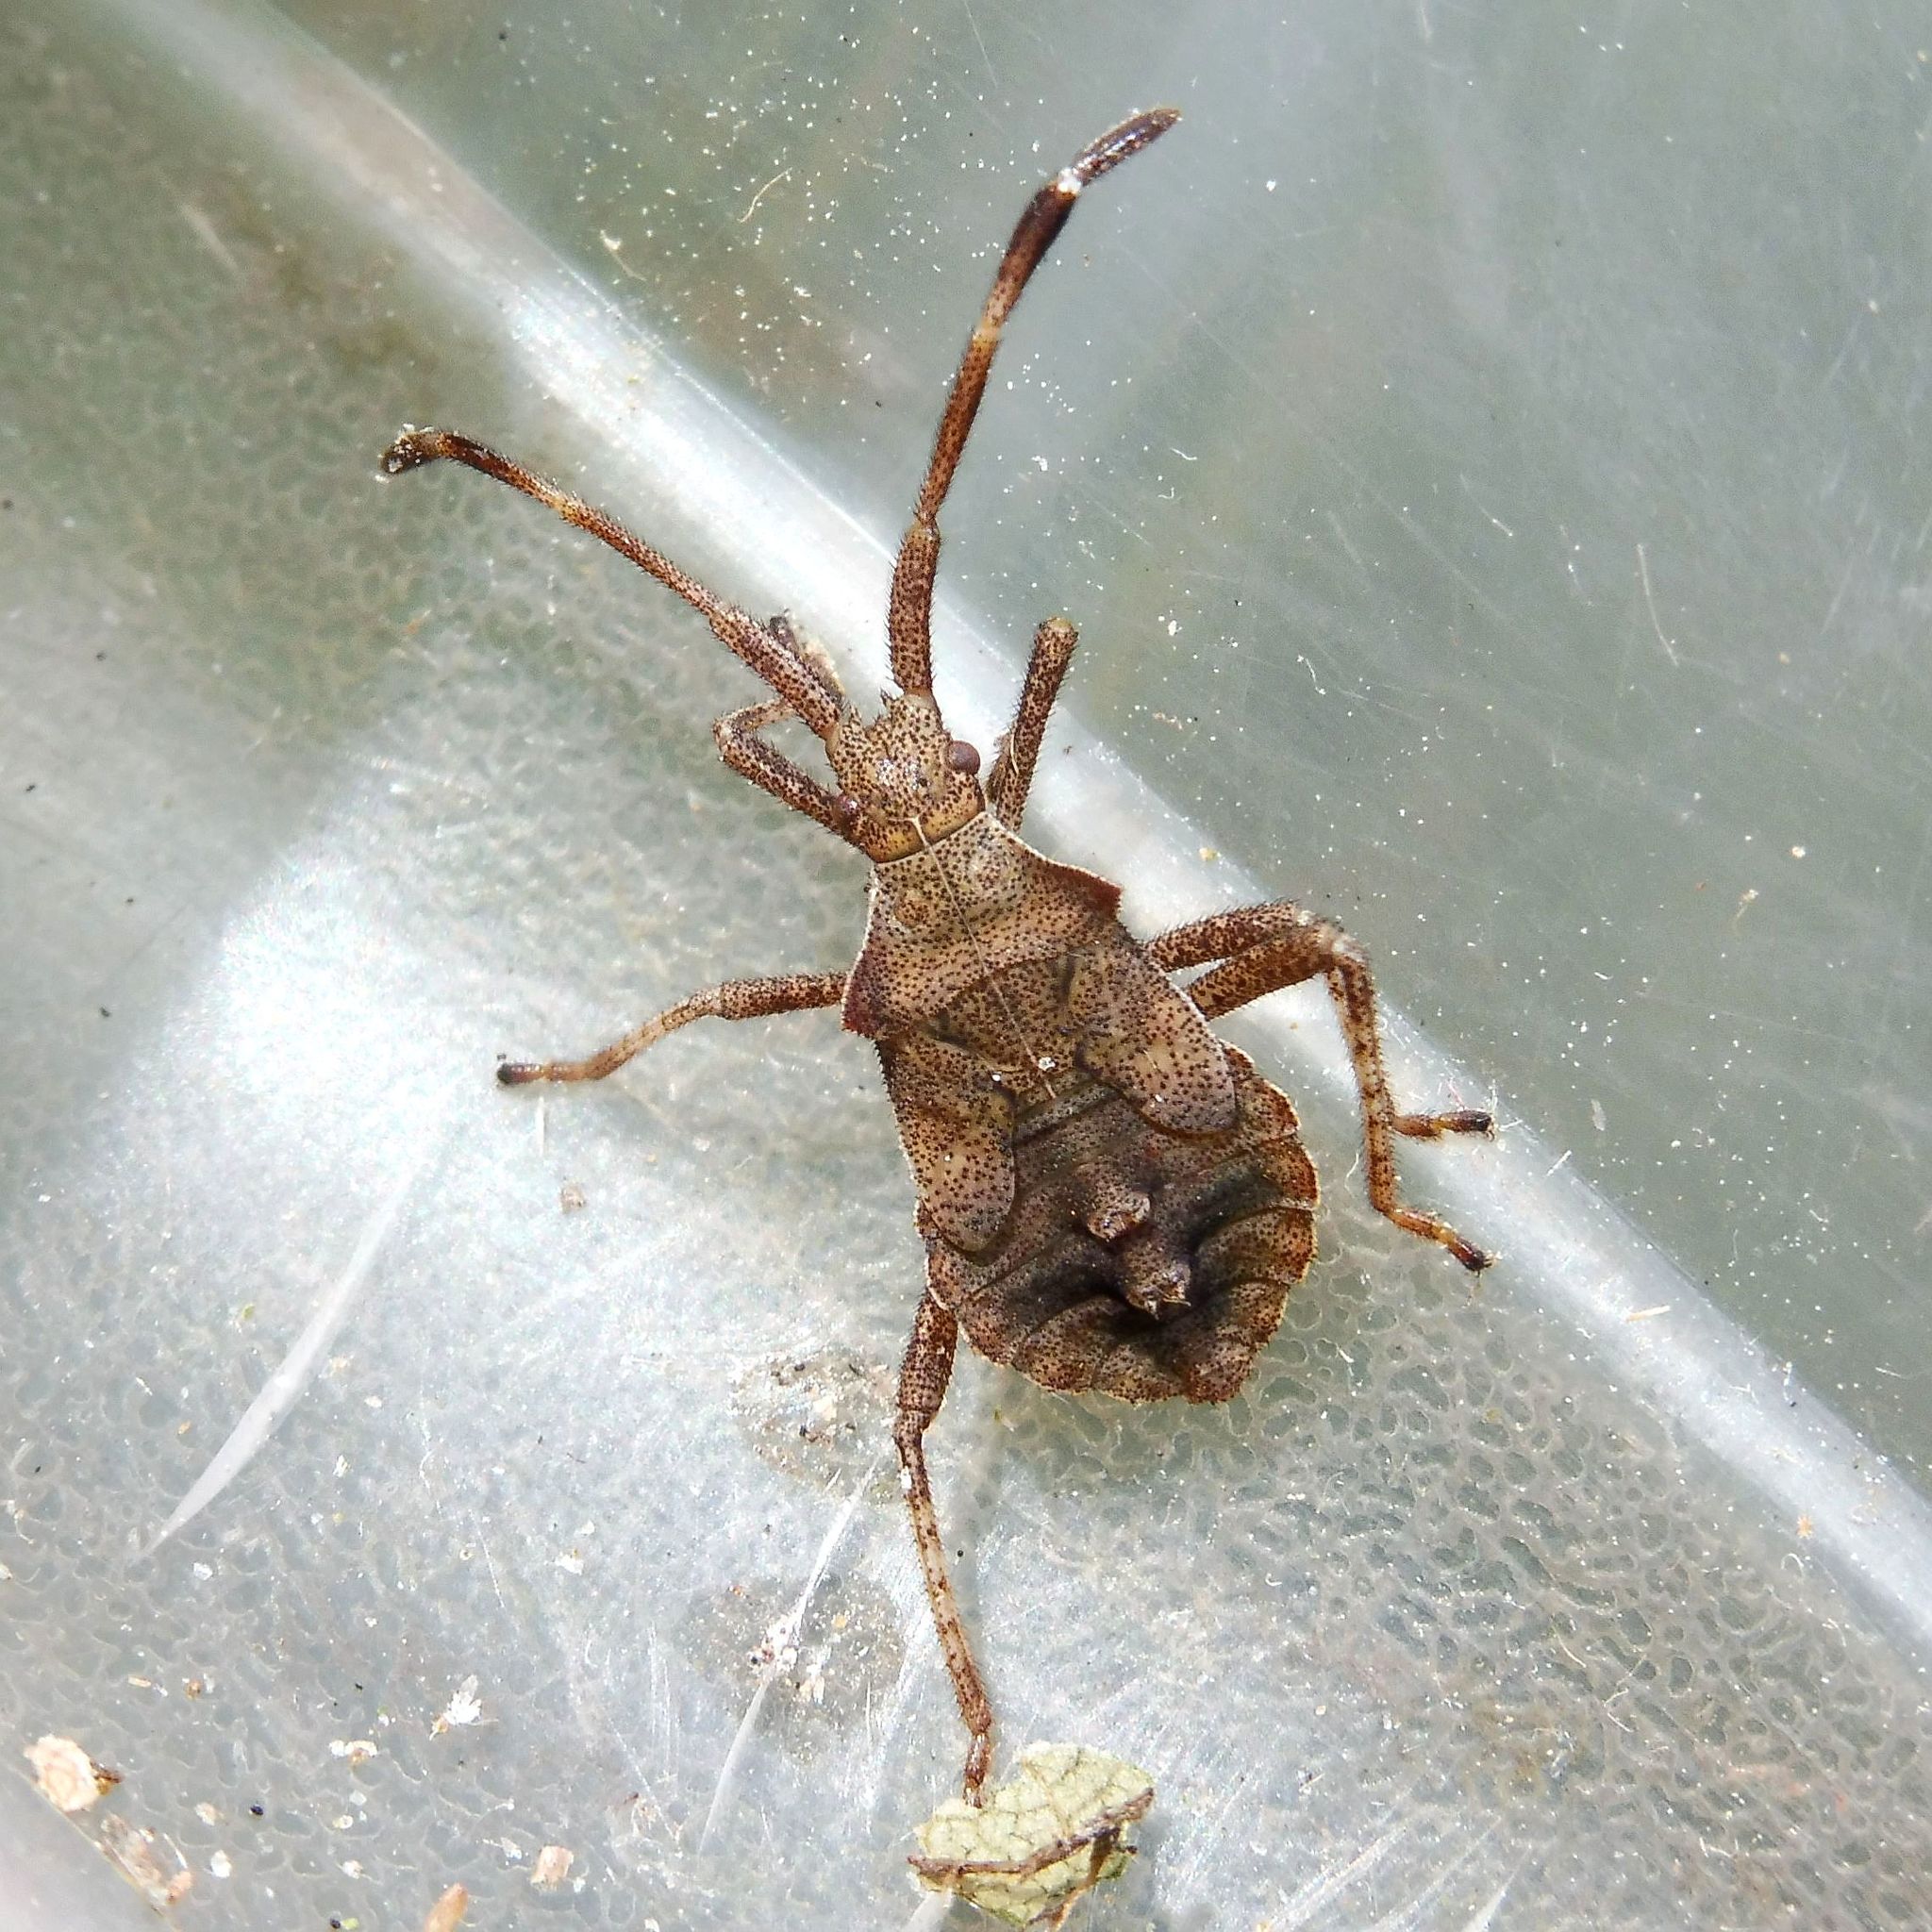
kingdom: Animalia
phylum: Arthropoda
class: Insecta
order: Hemiptera
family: Coreidae
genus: Coreus
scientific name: Coreus marginatus
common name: Dock bug
